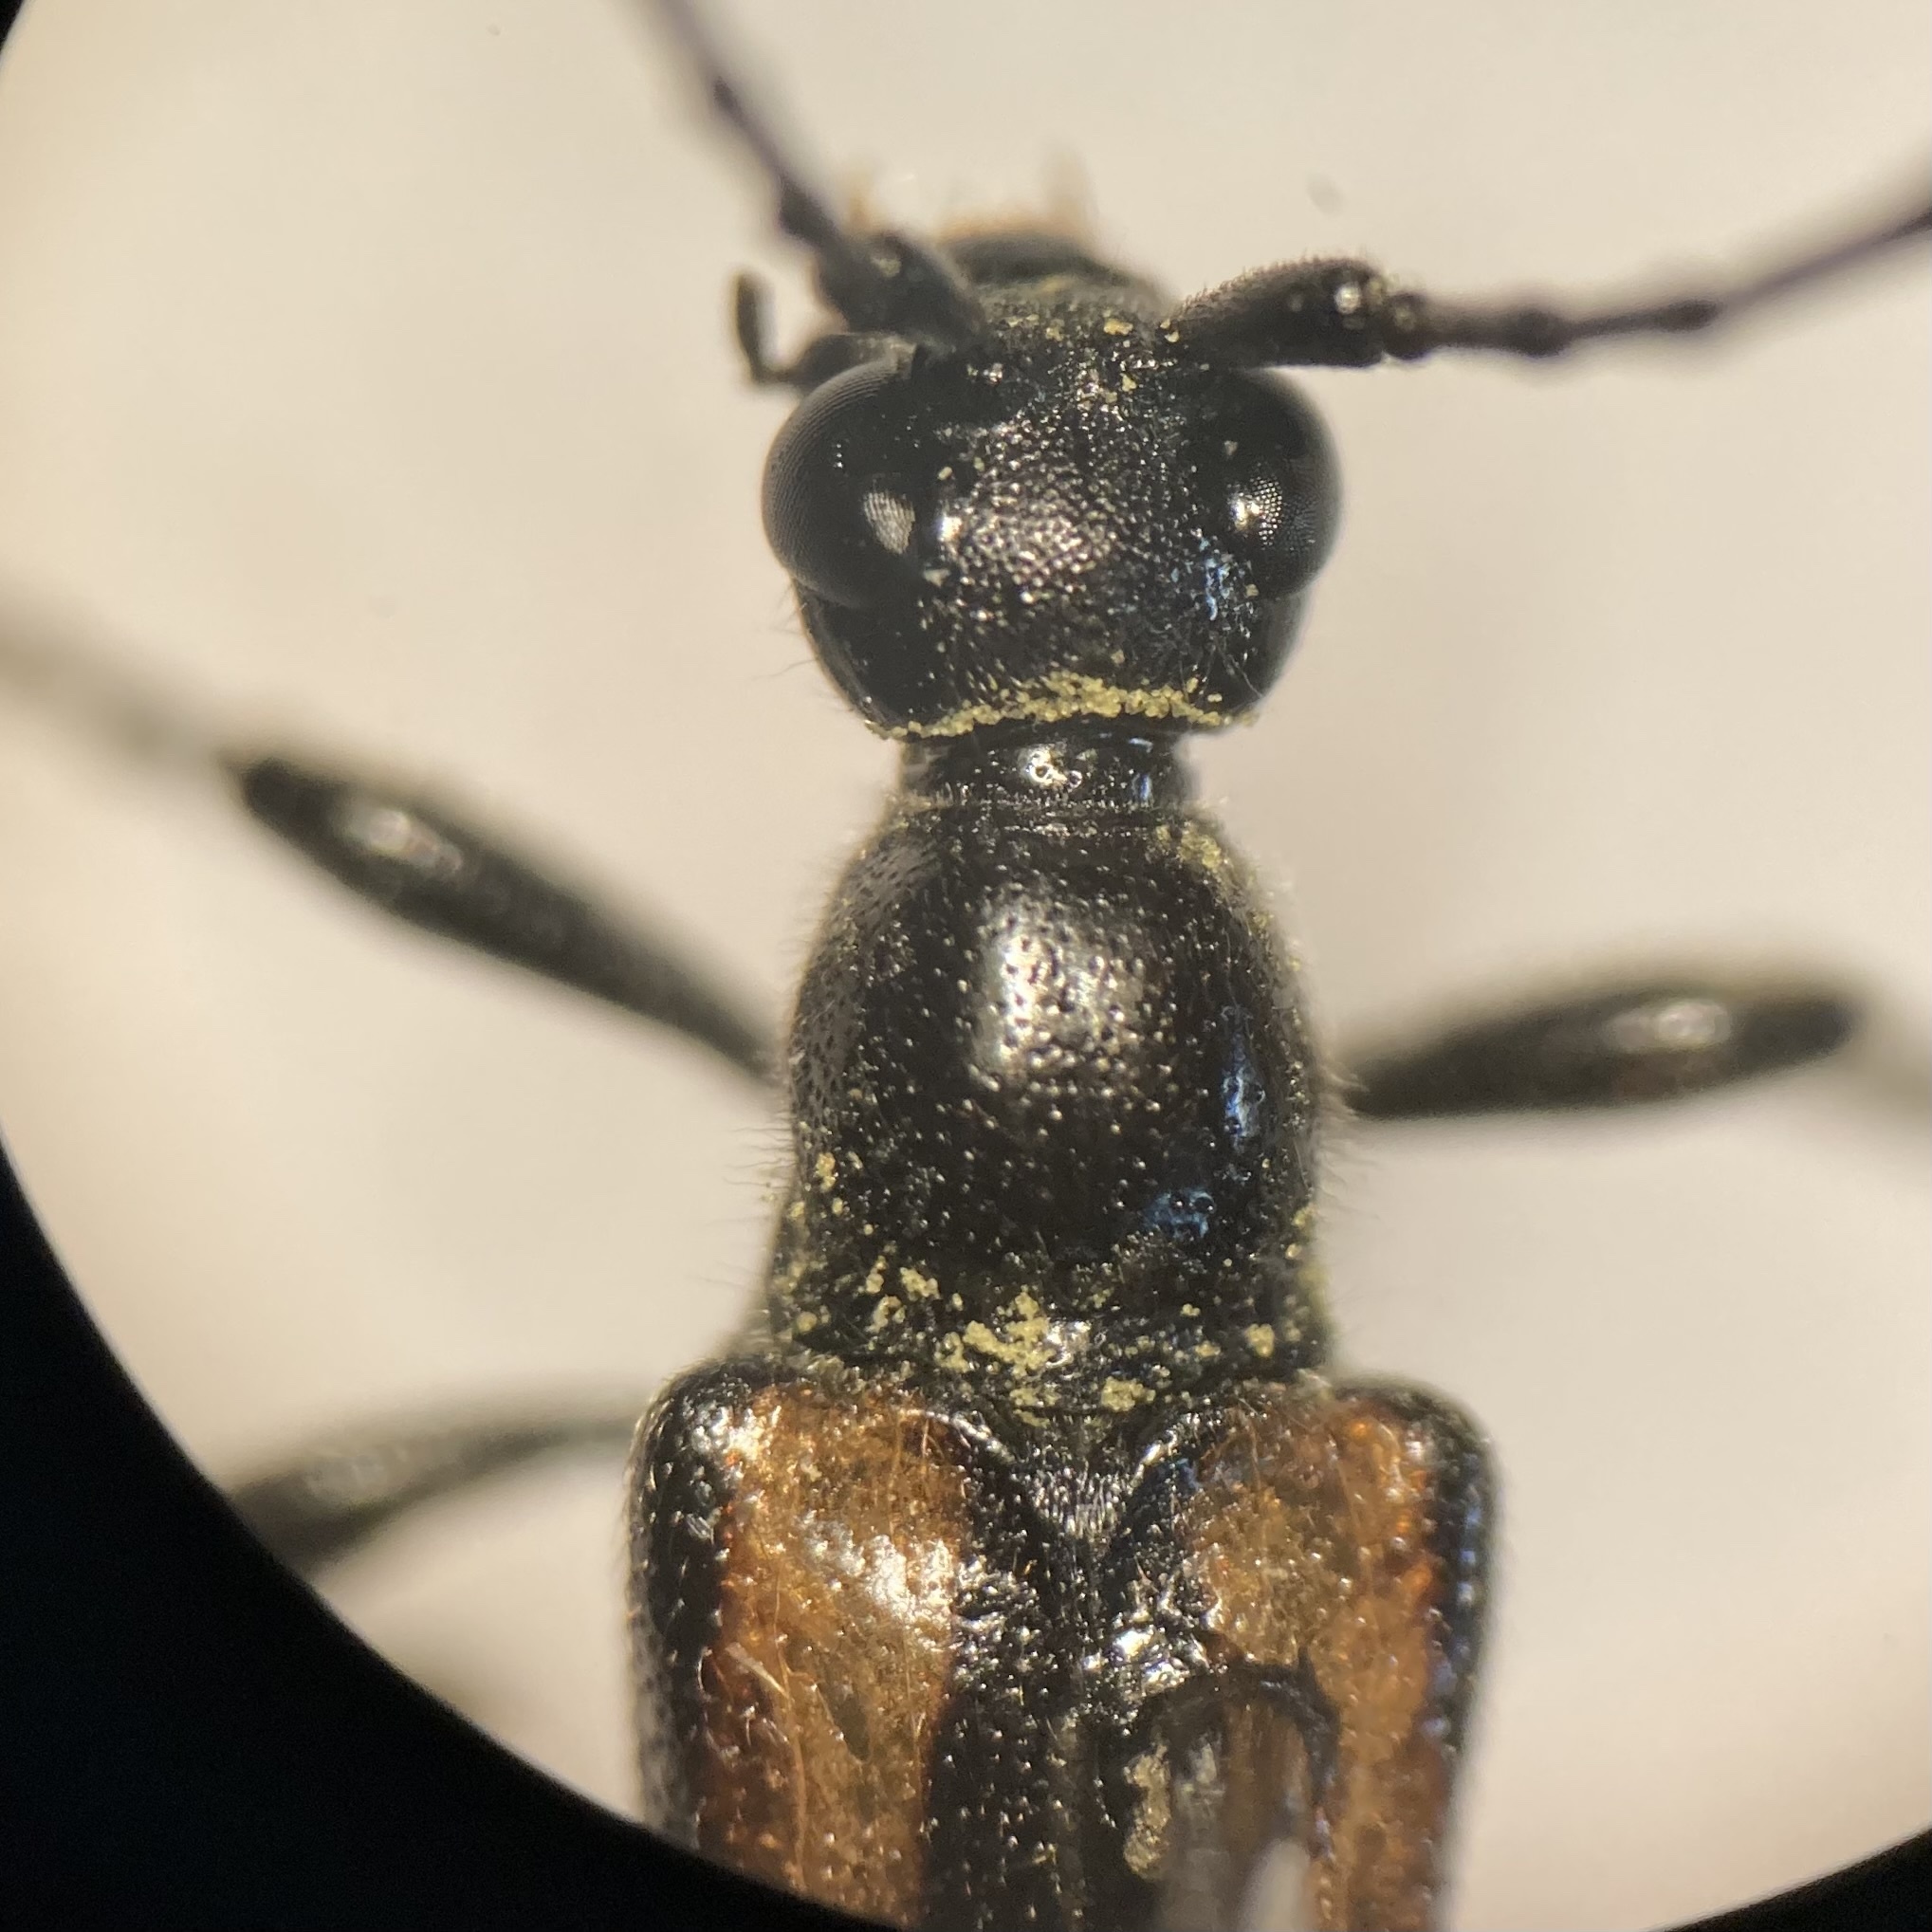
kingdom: Animalia
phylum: Arthropoda
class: Insecta
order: Coleoptera
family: Cerambycidae
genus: Strangalepta
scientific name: Strangalepta abbreviata
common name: Strangalepta flower longhorn beetle
